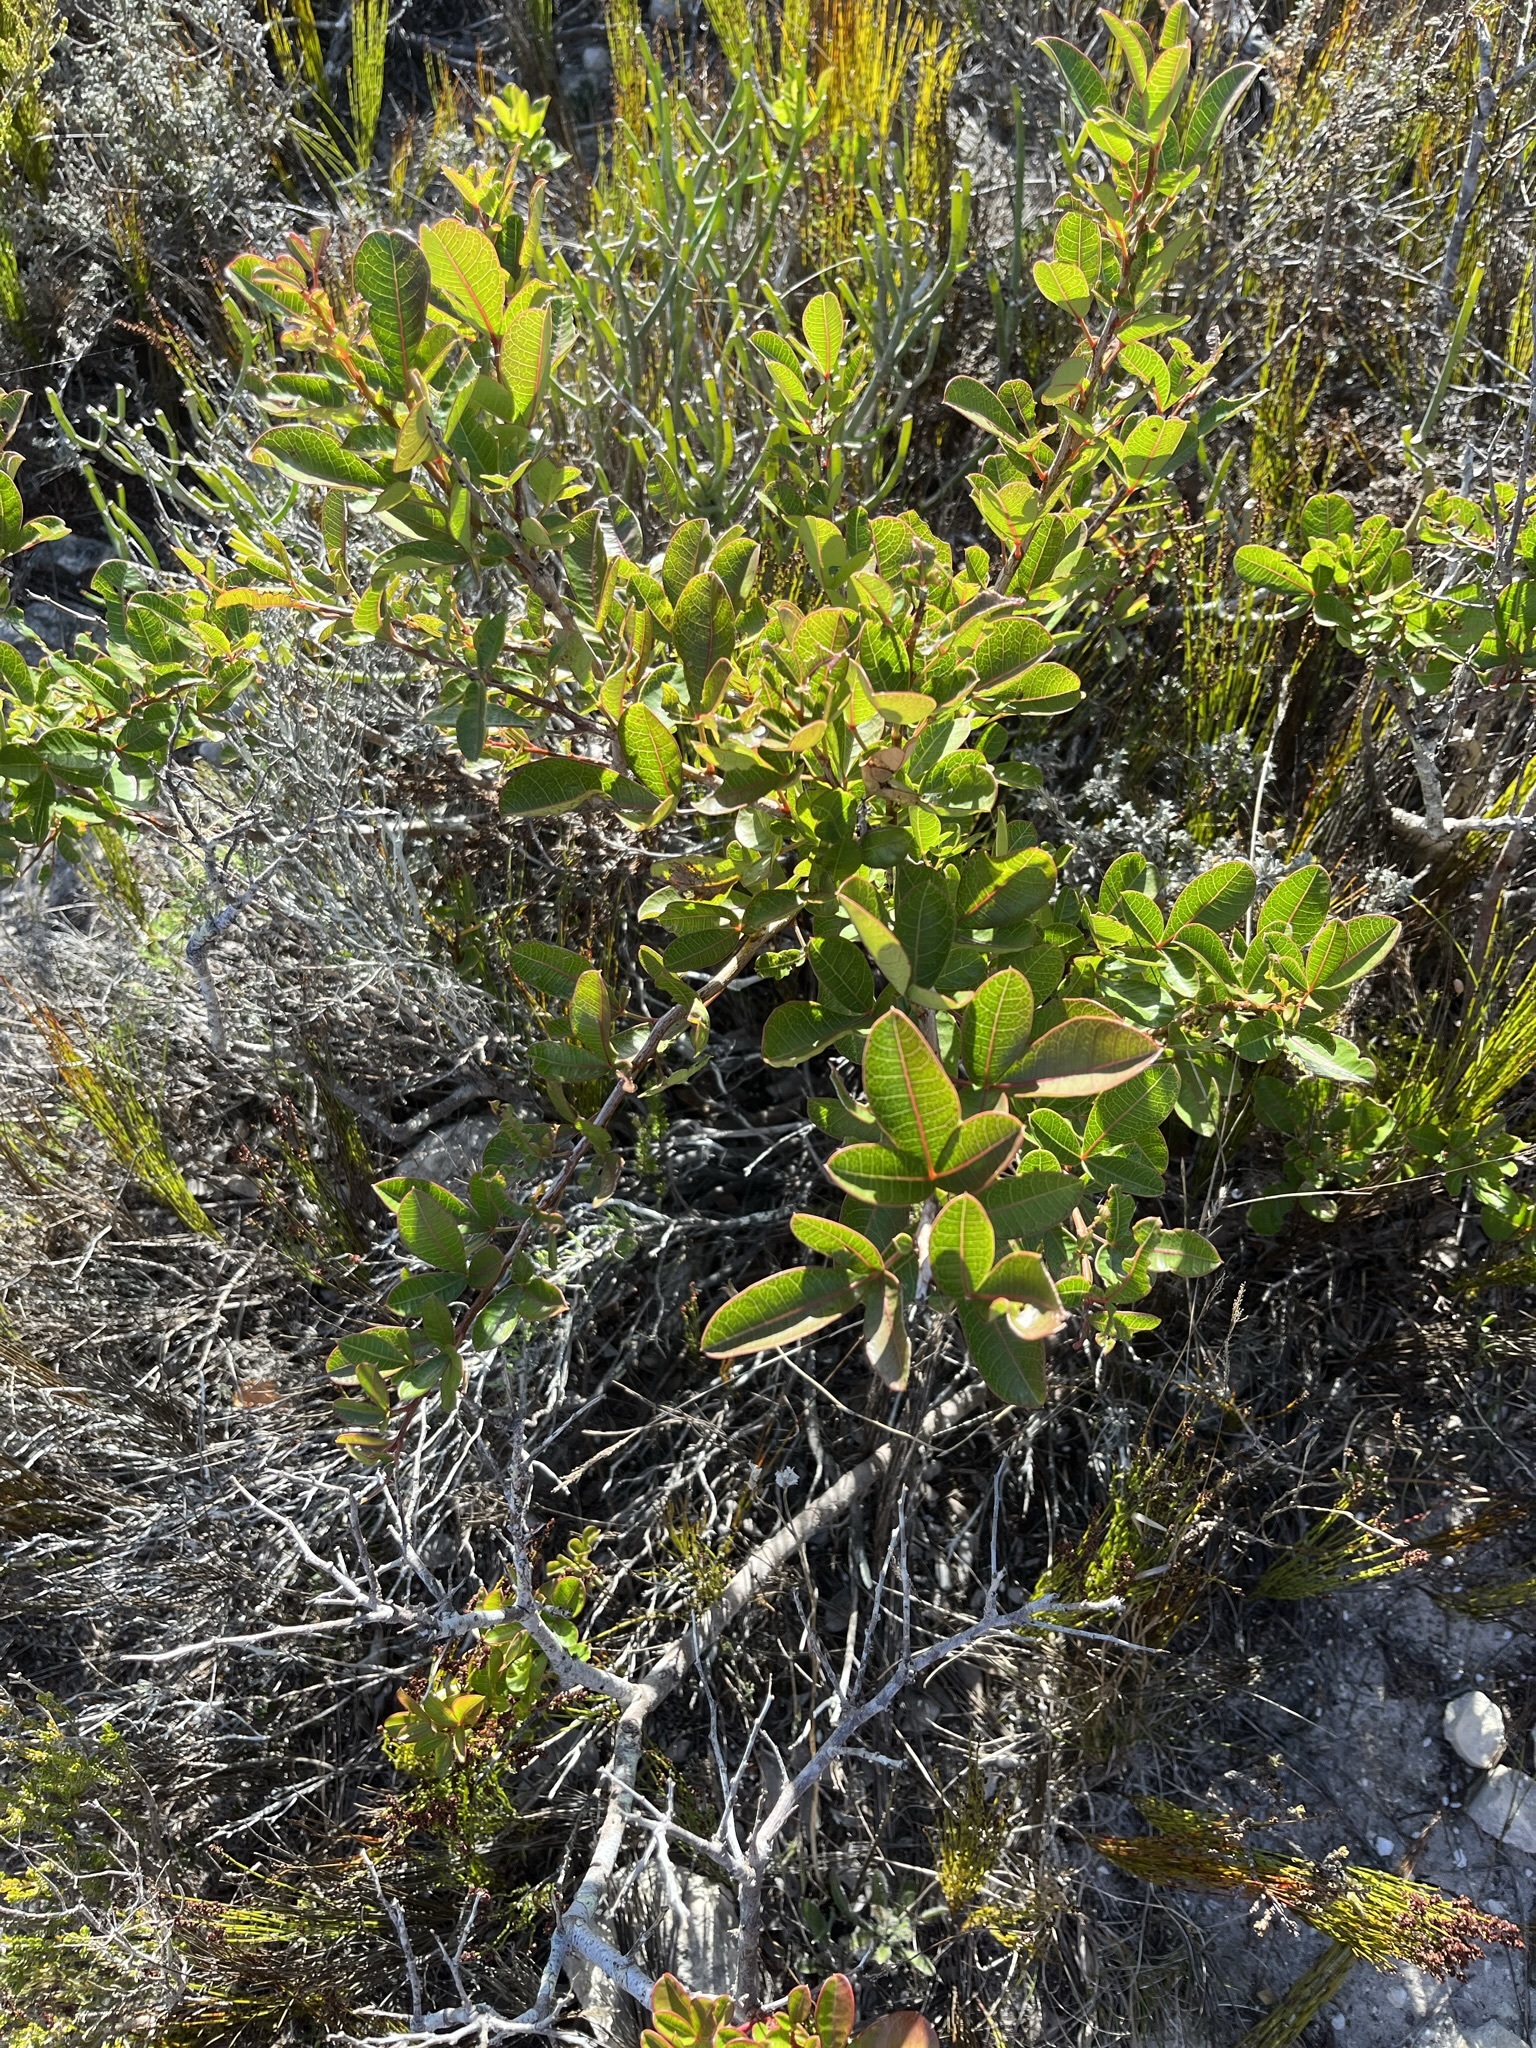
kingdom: Plantae
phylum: Tracheophyta
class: Magnoliopsida
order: Sapindales
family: Anacardiaceae
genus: Searsia
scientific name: Searsia laevigata
